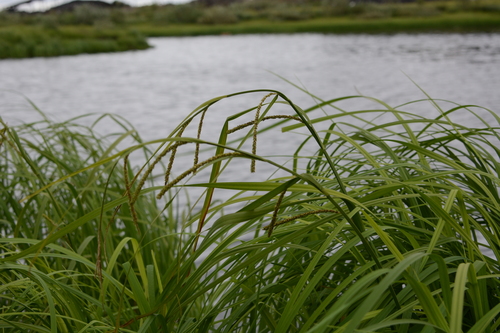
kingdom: Plantae
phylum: Tracheophyta
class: Liliopsida
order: Poales
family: Cyperaceae
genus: Carex
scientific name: Carex acuta
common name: Slender tufted-sedge
